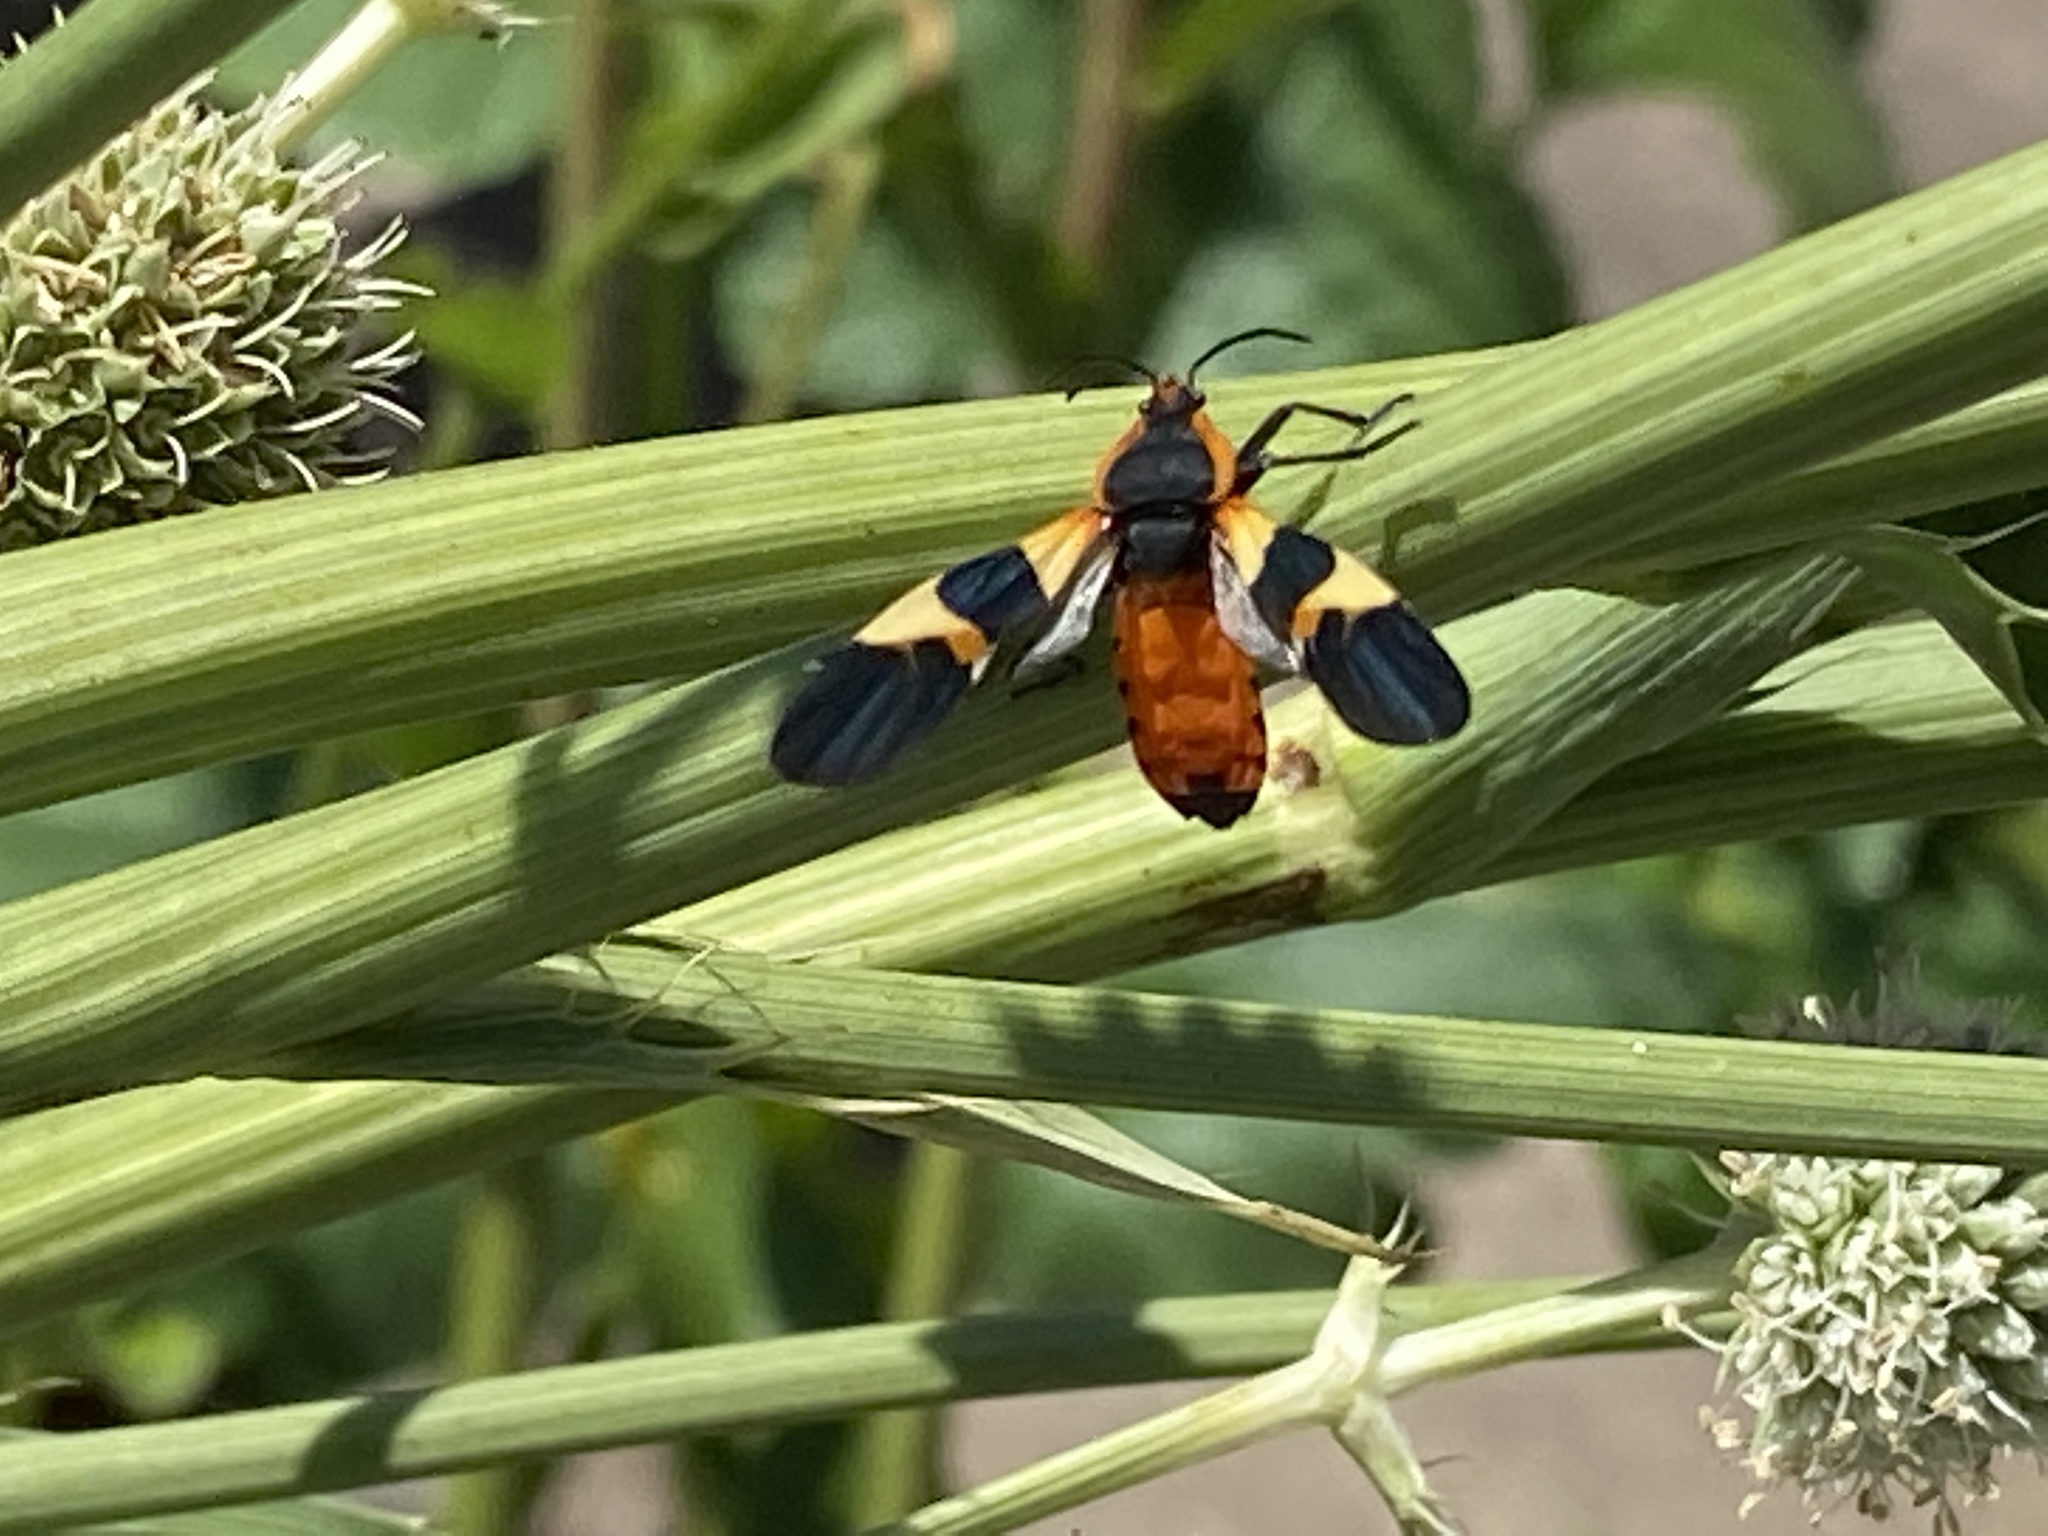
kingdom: Animalia
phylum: Arthropoda
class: Insecta
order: Hemiptera
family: Lygaeidae
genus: Oncopeltus
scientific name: Oncopeltus fasciatus
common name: Large milkweed bug
